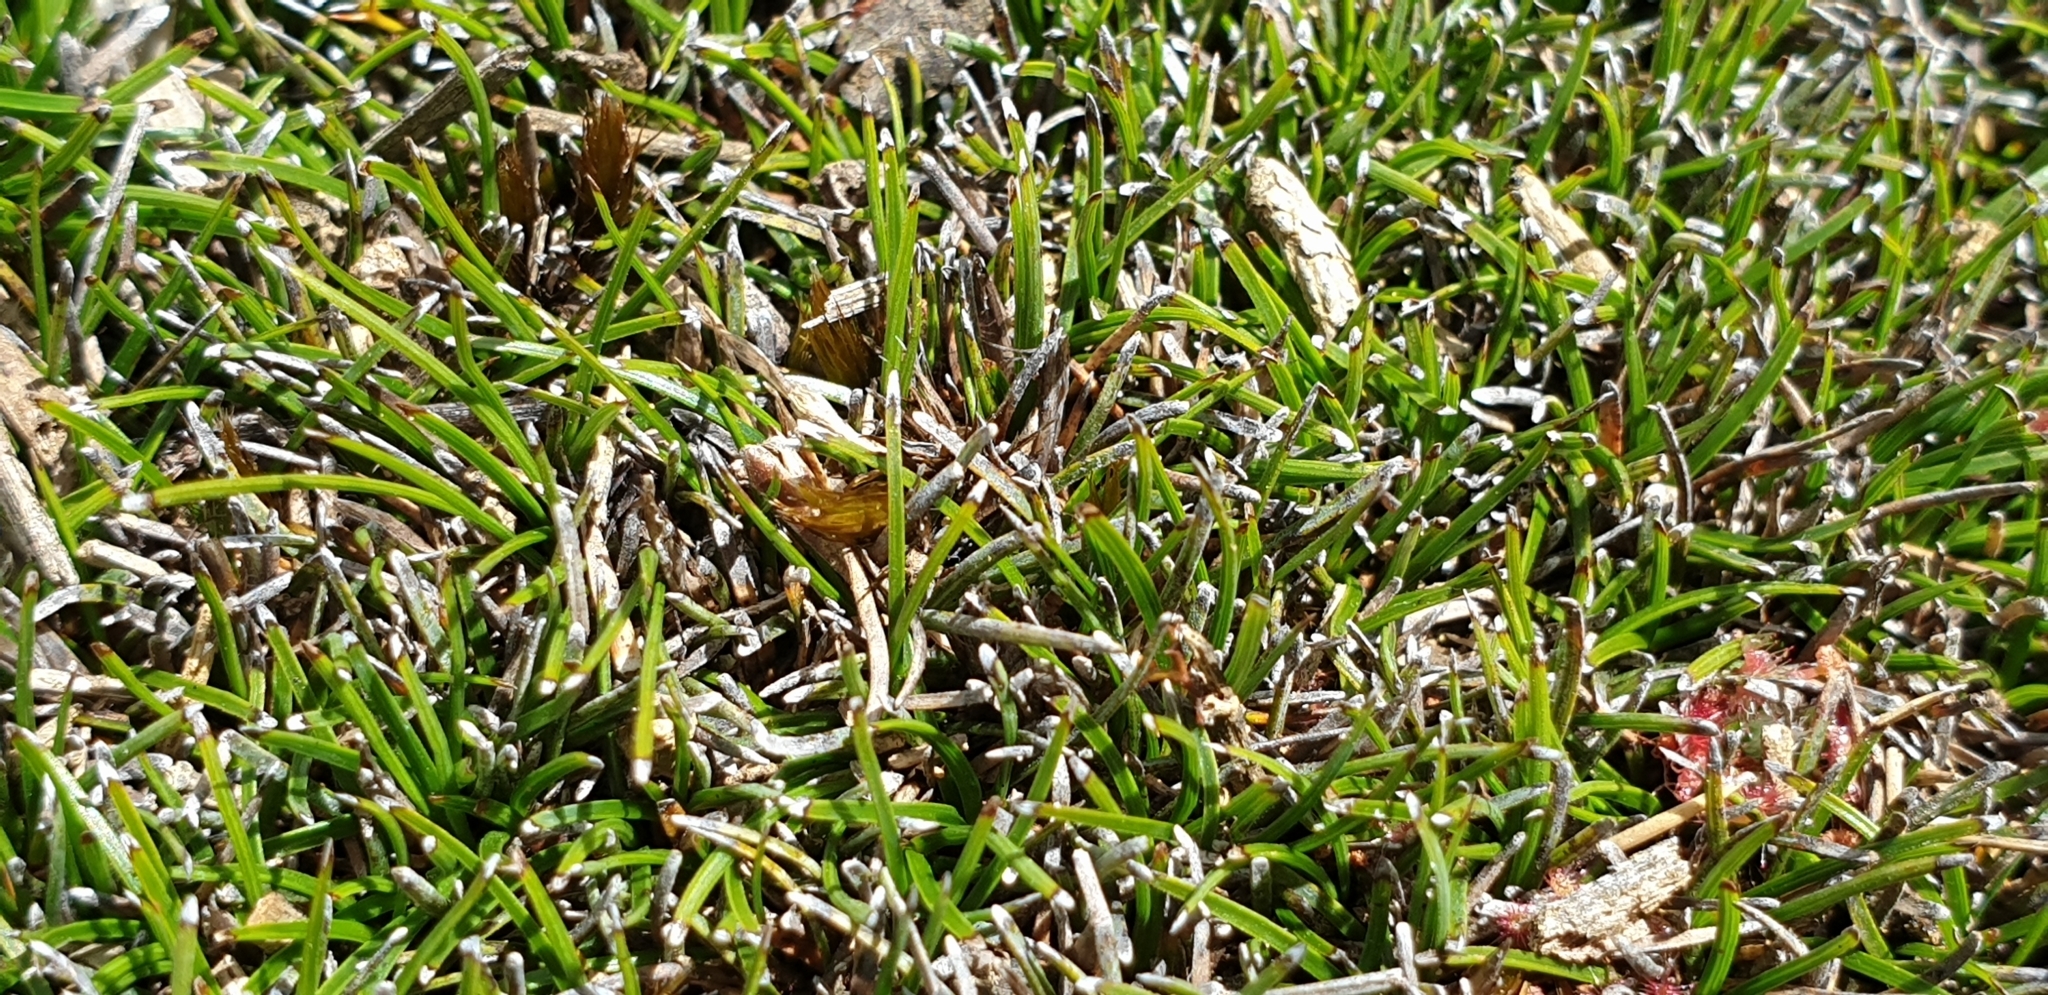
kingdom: Plantae
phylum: Tracheophyta
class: Liliopsida
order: Poales
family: Cyperaceae
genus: Schoenus
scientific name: Schoenus breviculmis
